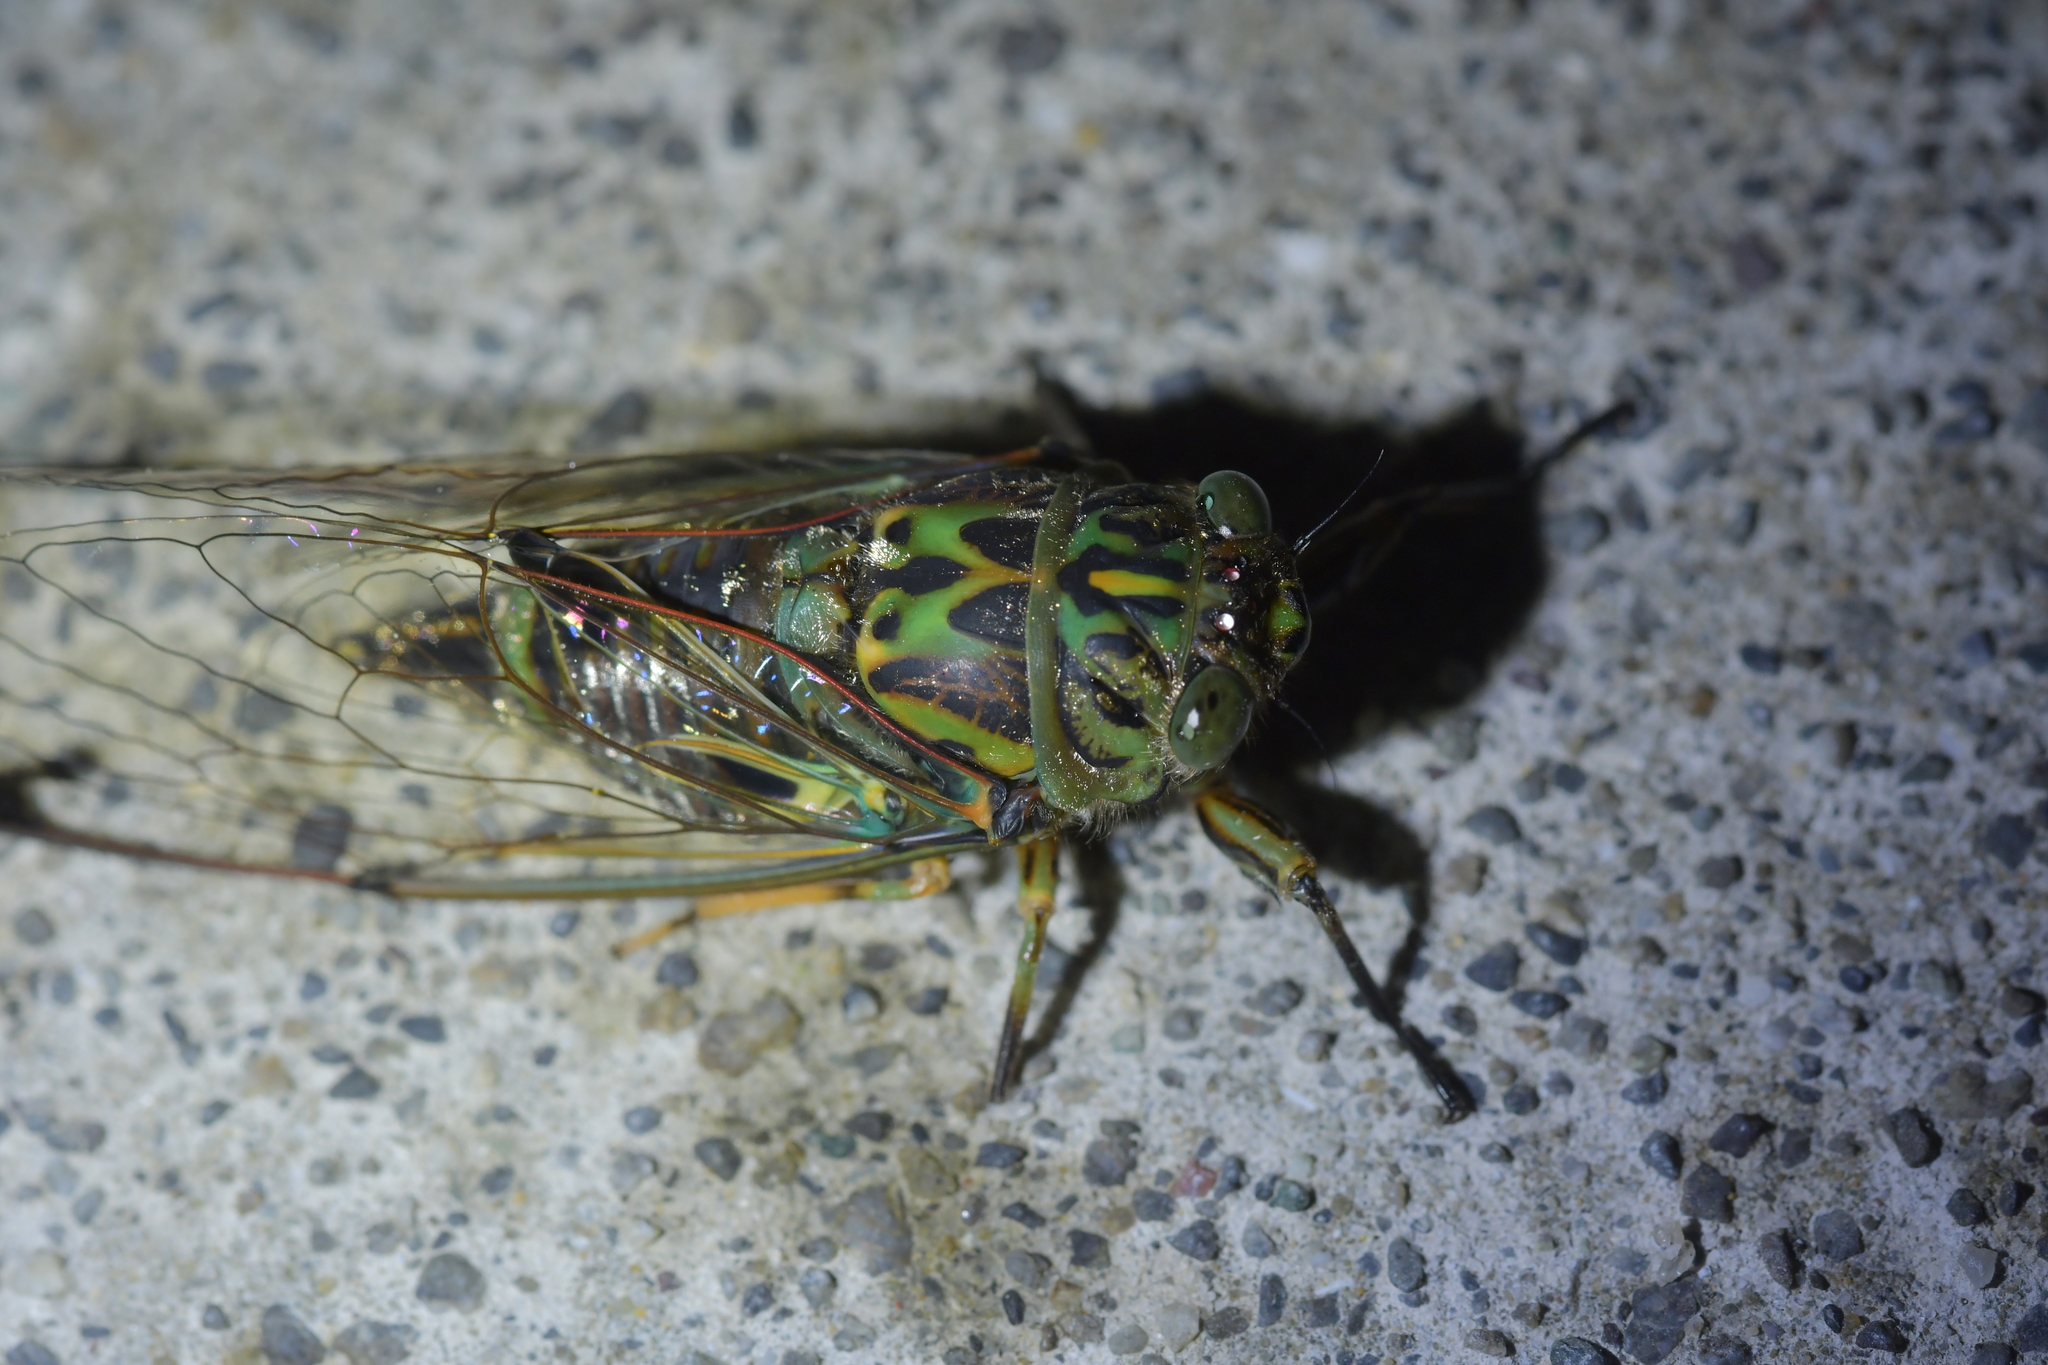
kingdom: Animalia
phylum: Arthropoda
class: Insecta
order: Hemiptera
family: Cicadidae
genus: Amphipsalta
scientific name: Amphipsalta zelandica
